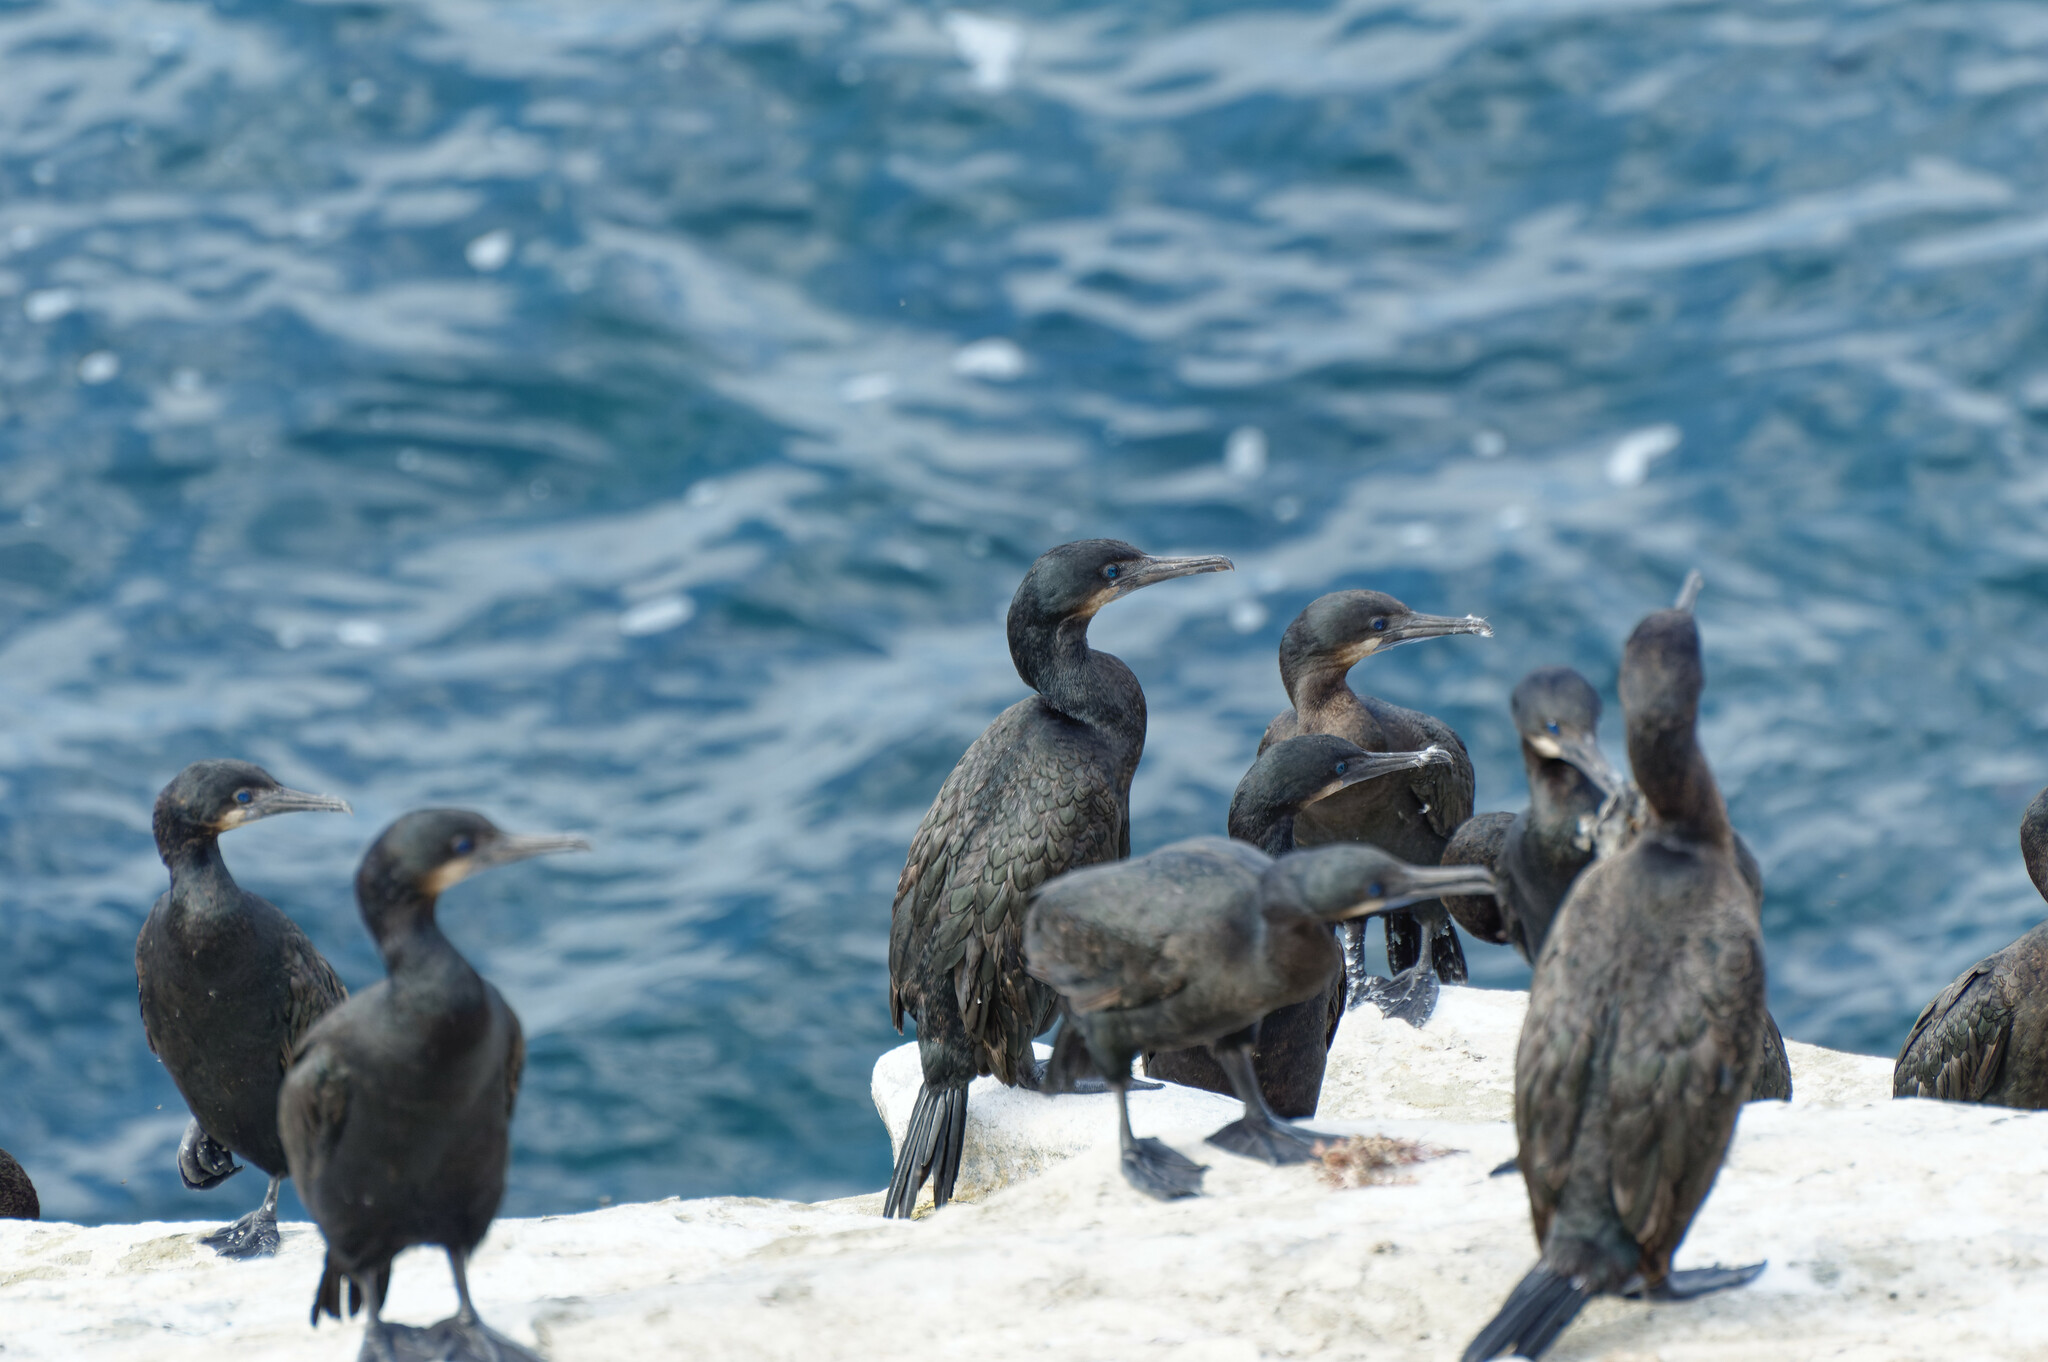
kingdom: Animalia
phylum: Chordata
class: Aves
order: Suliformes
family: Phalacrocoracidae
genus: Urile
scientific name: Urile penicillatus
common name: Brandt's cormorant
